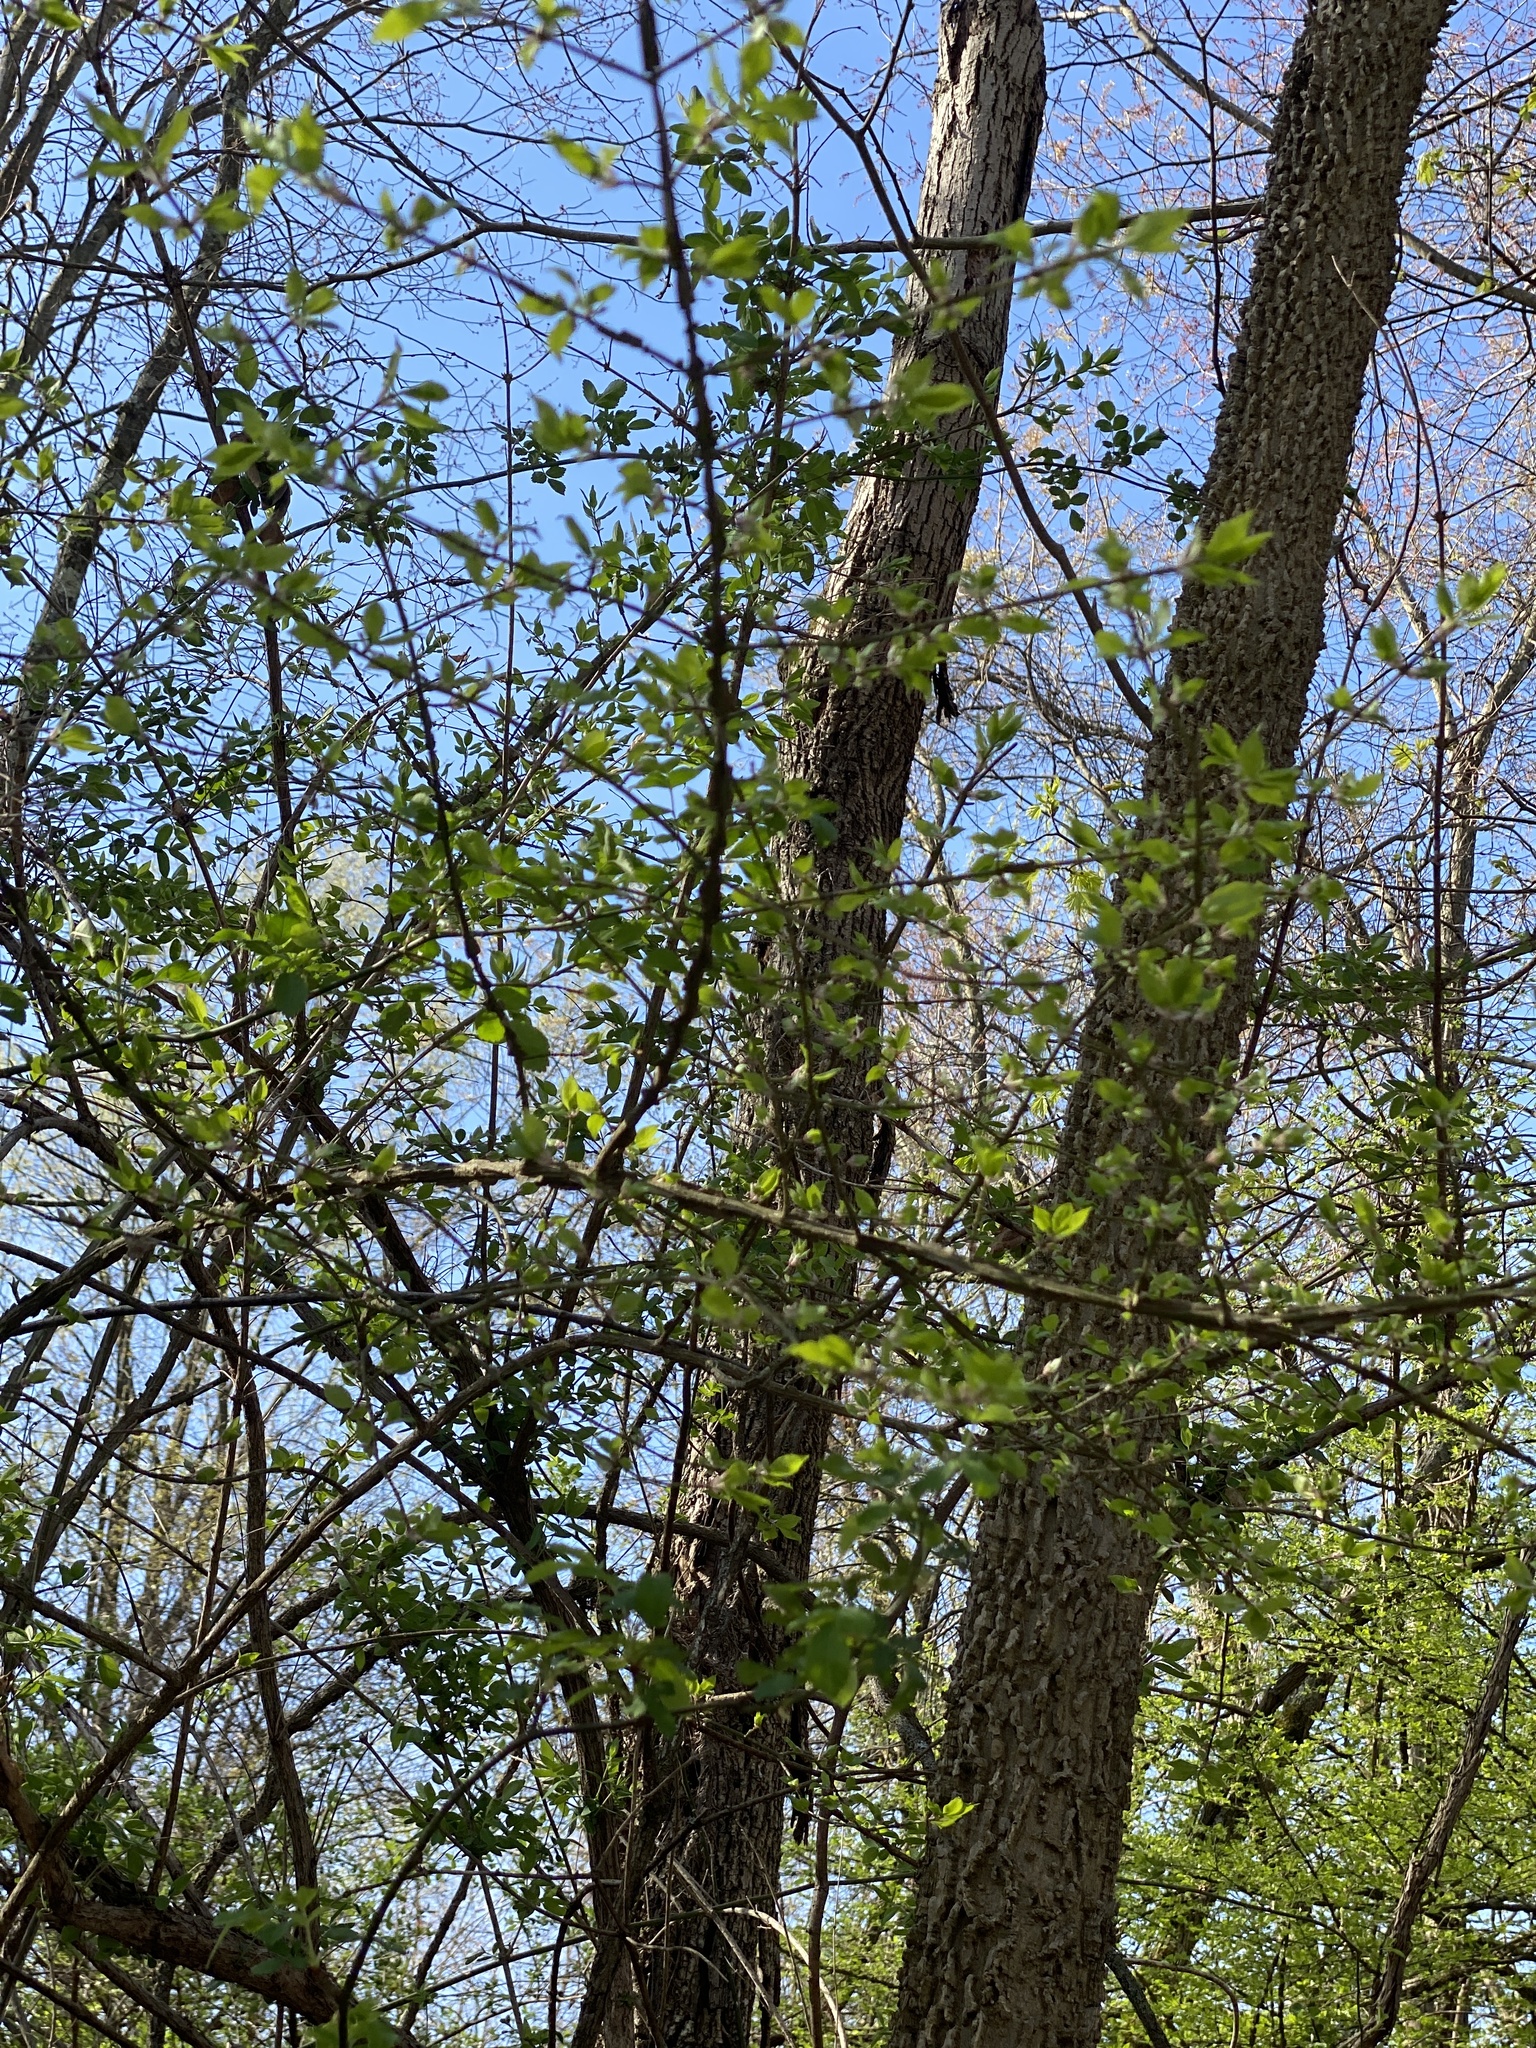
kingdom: Plantae
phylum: Tracheophyta
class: Magnoliopsida
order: Celastrales
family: Celastraceae
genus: Euonymus
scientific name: Euonymus alatus
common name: Winged euonymus
